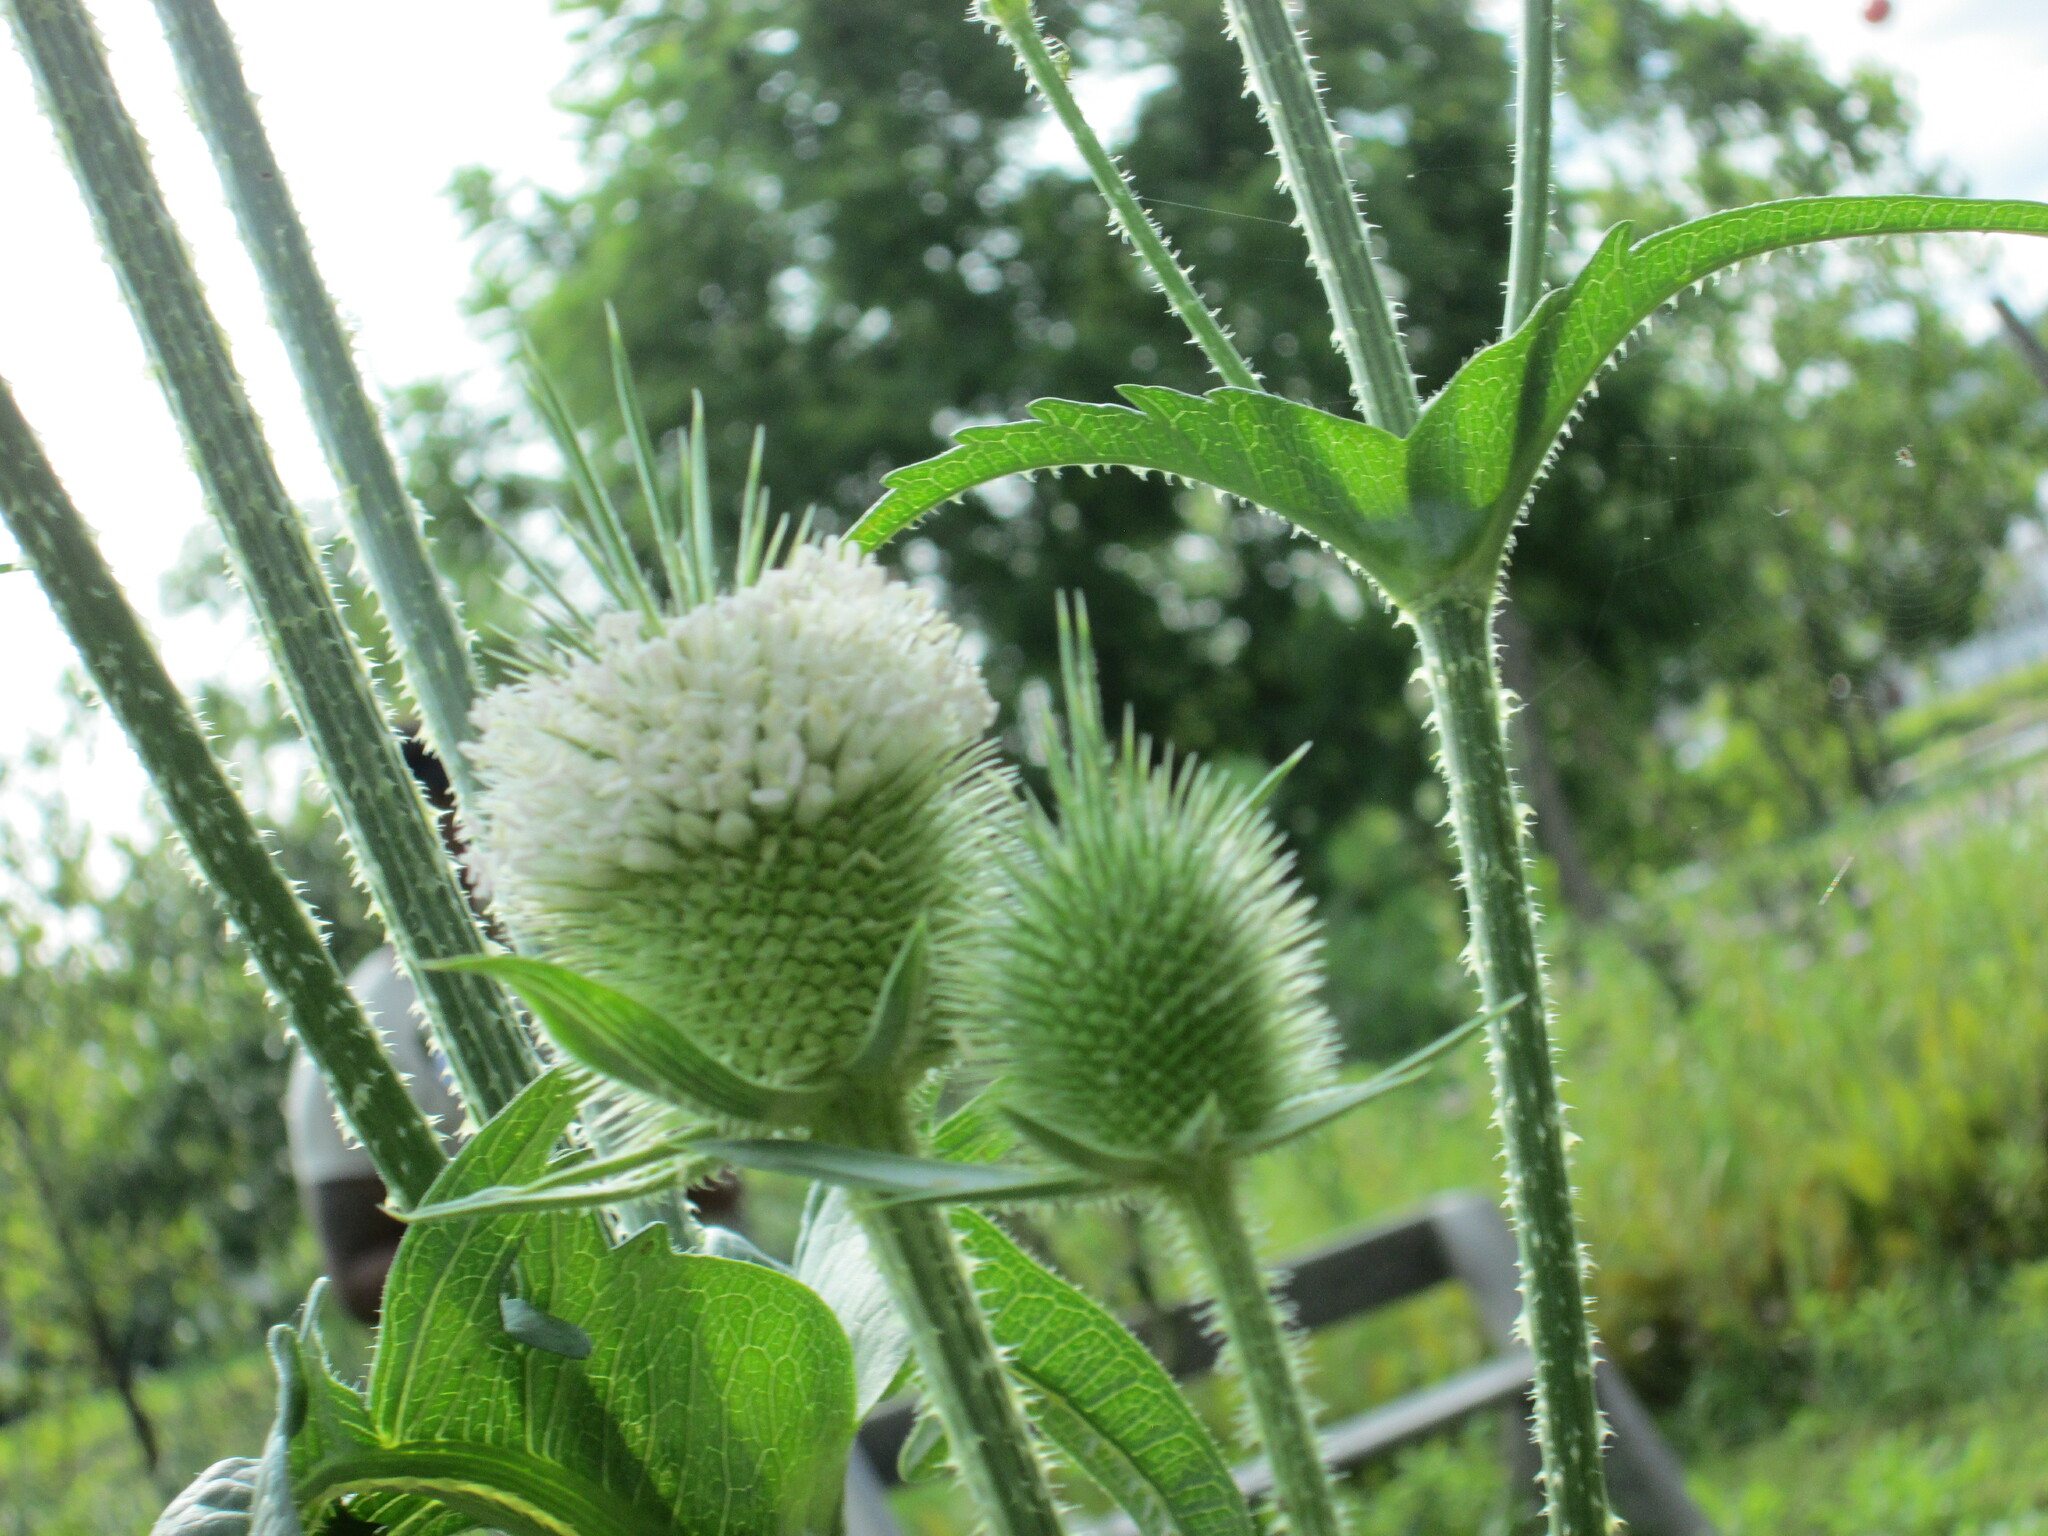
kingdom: Plantae
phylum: Tracheophyta
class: Magnoliopsida
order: Dipsacales
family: Caprifoliaceae
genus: Dipsacus
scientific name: Dipsacus laciniatus
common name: Cut-leaved teasel
